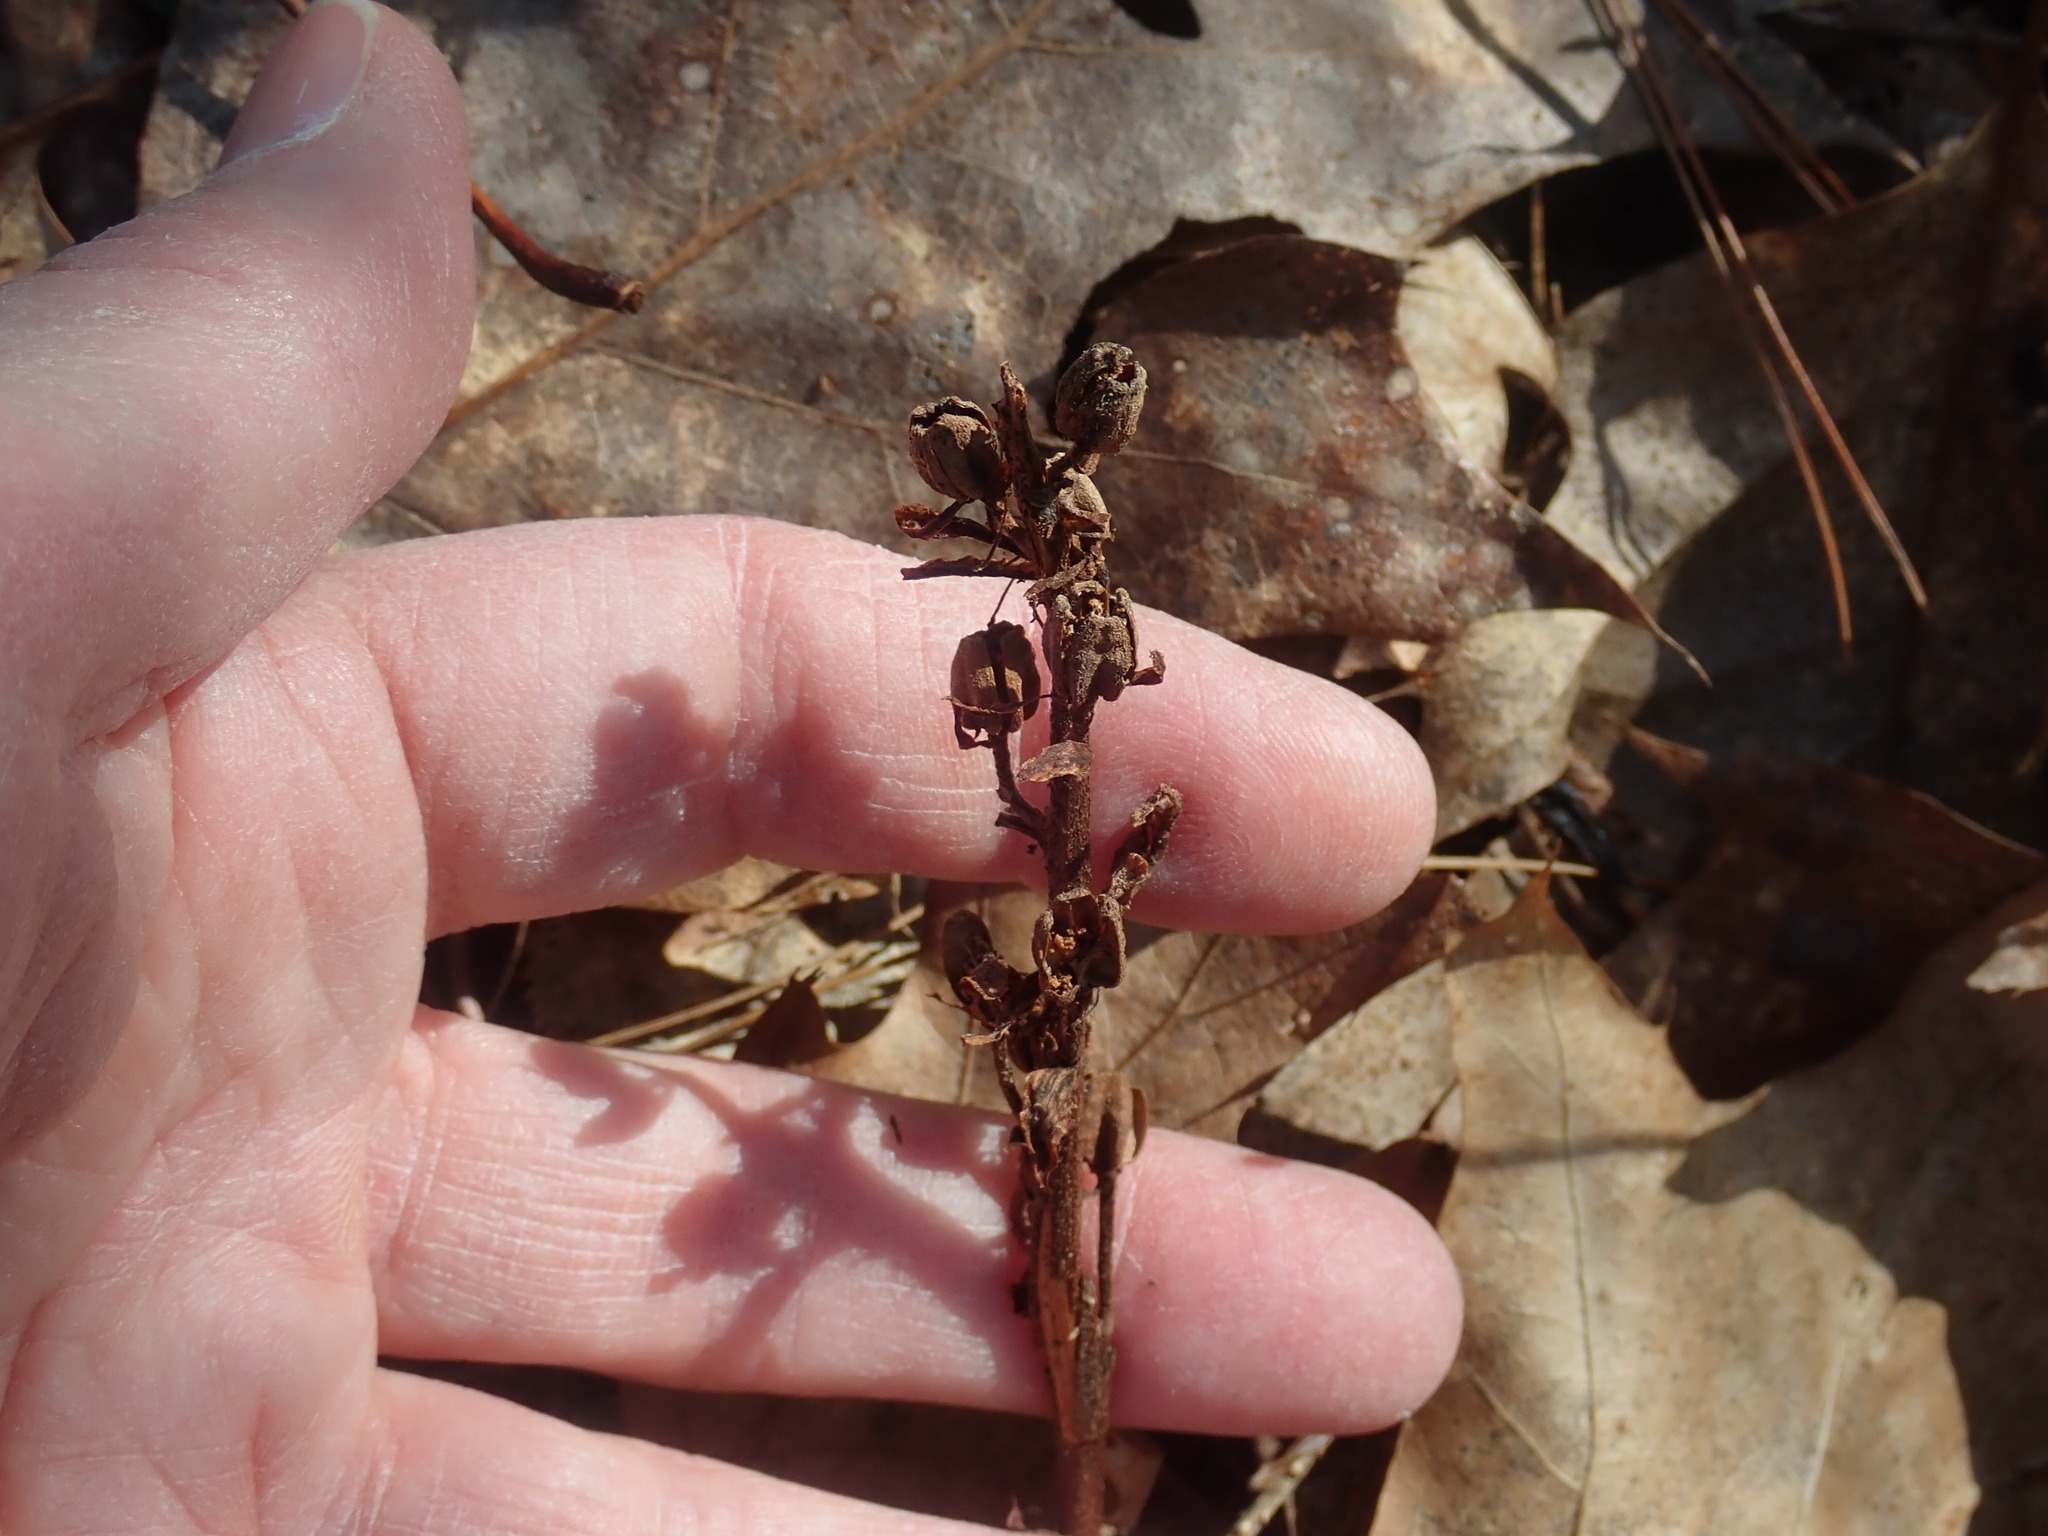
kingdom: Plantae
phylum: Tracheophyta
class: Magnoliopsida
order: Ericales
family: Ericaceae
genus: Hypopitys
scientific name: Hypopitys monotropa
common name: Yellow bird's-nest
